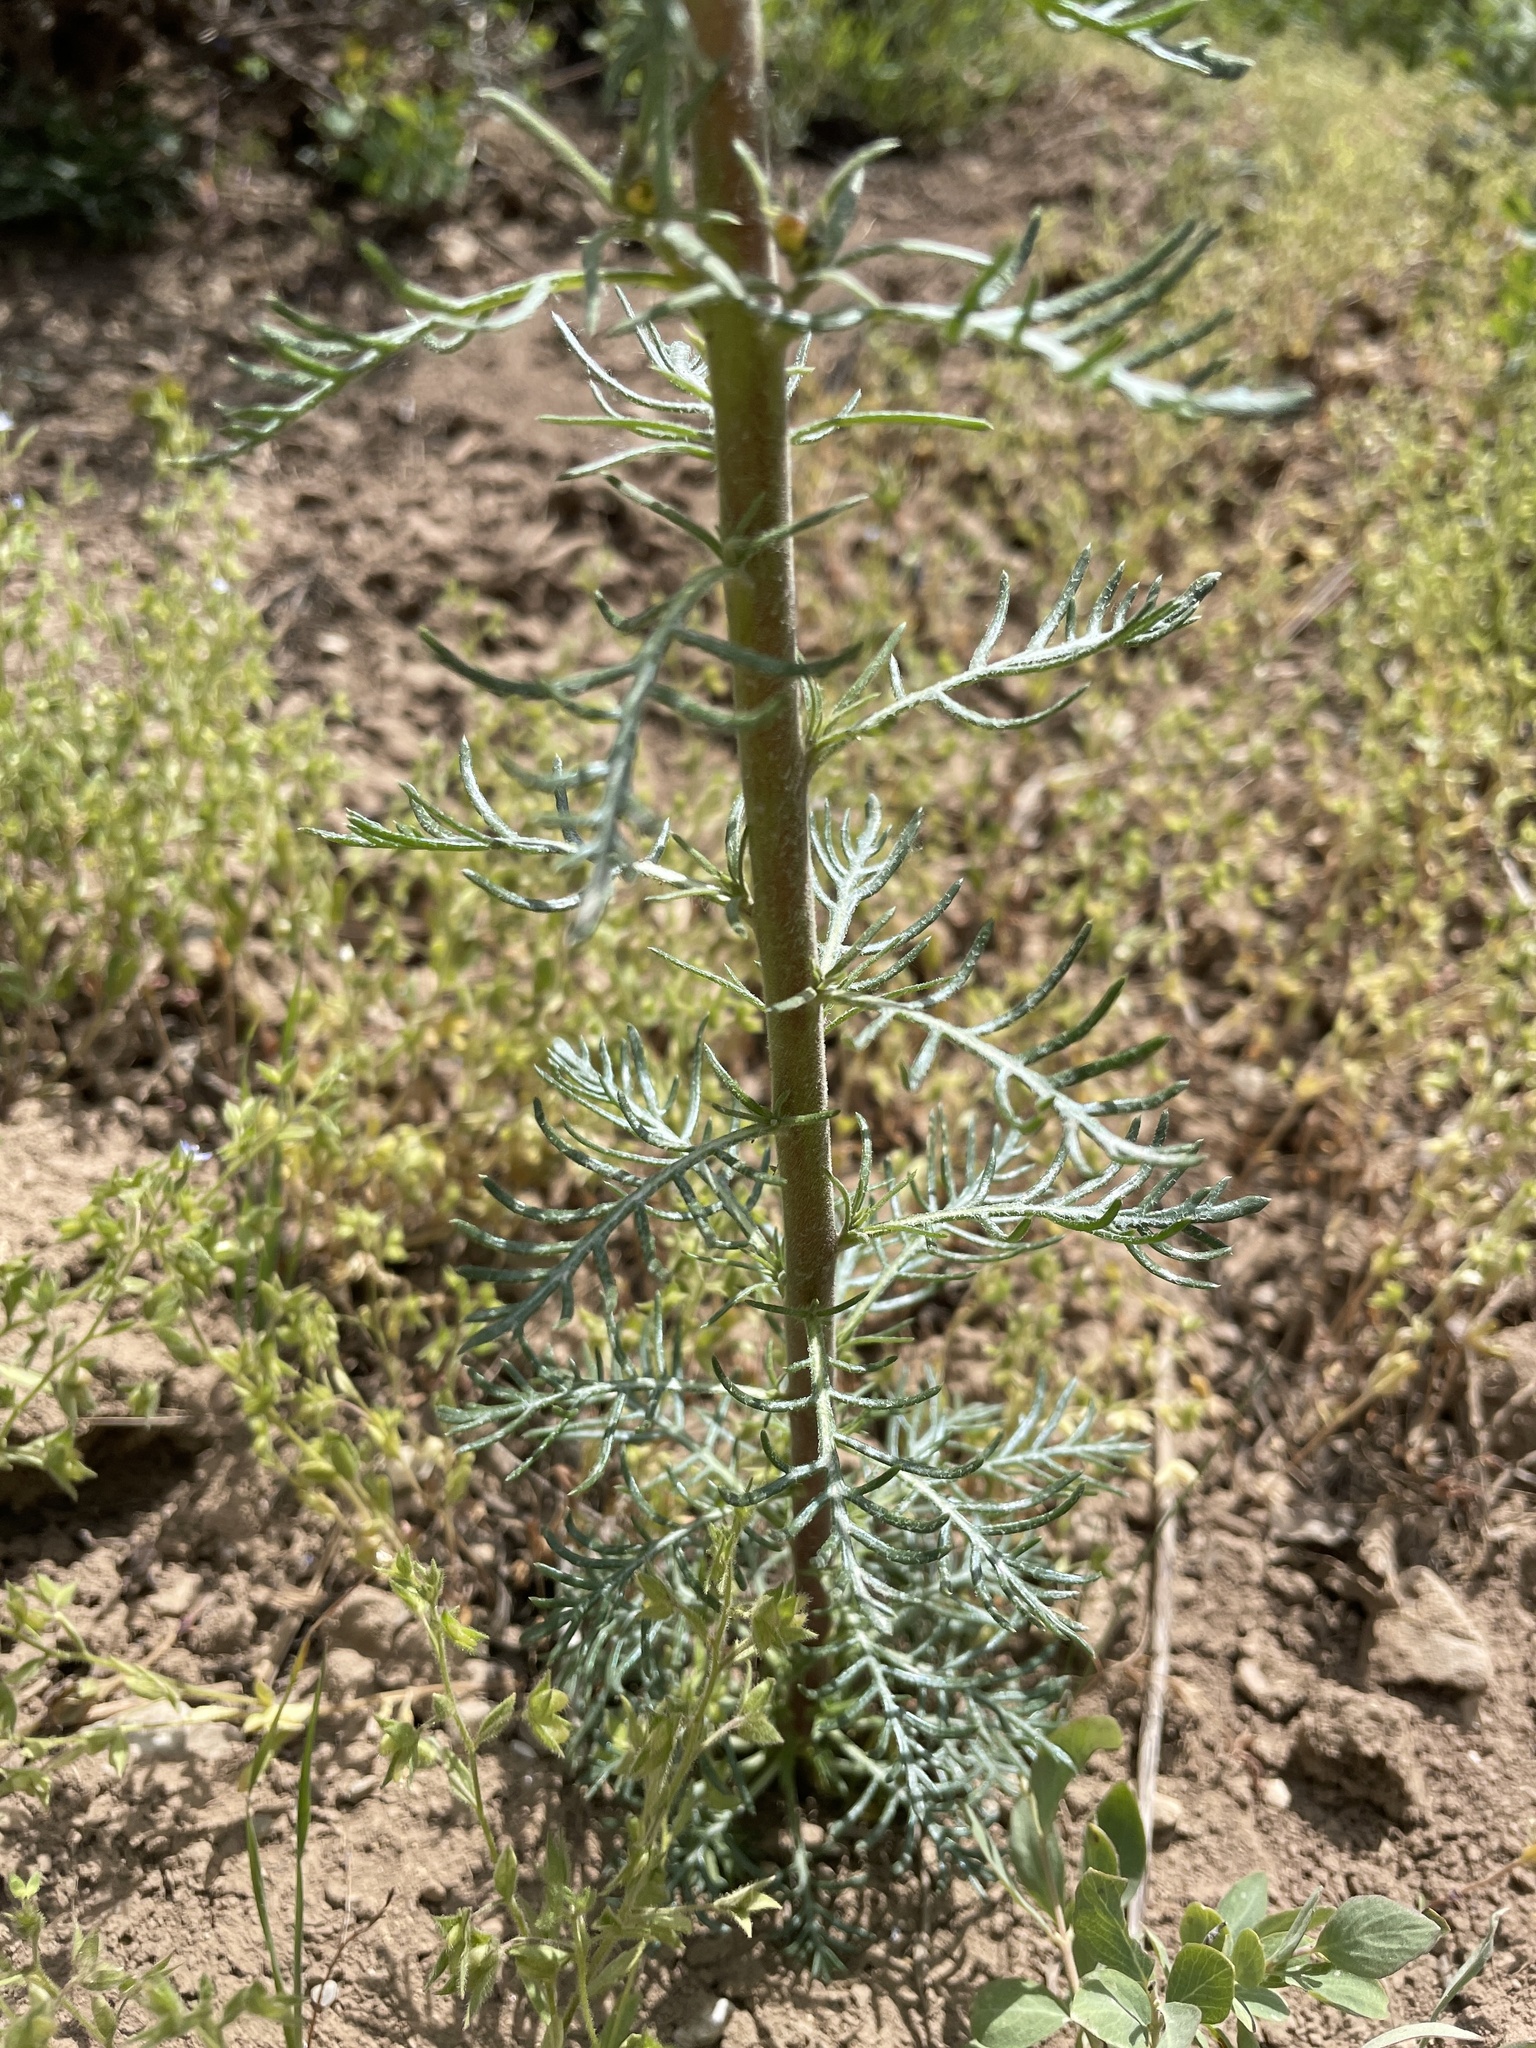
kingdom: Plantae
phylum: Tracheophyta
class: Magnoliopsida
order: Ericales
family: Polemoniaceae
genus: Ipomopsis
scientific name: Ipomopsis aggregata
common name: Scarlet gilia
